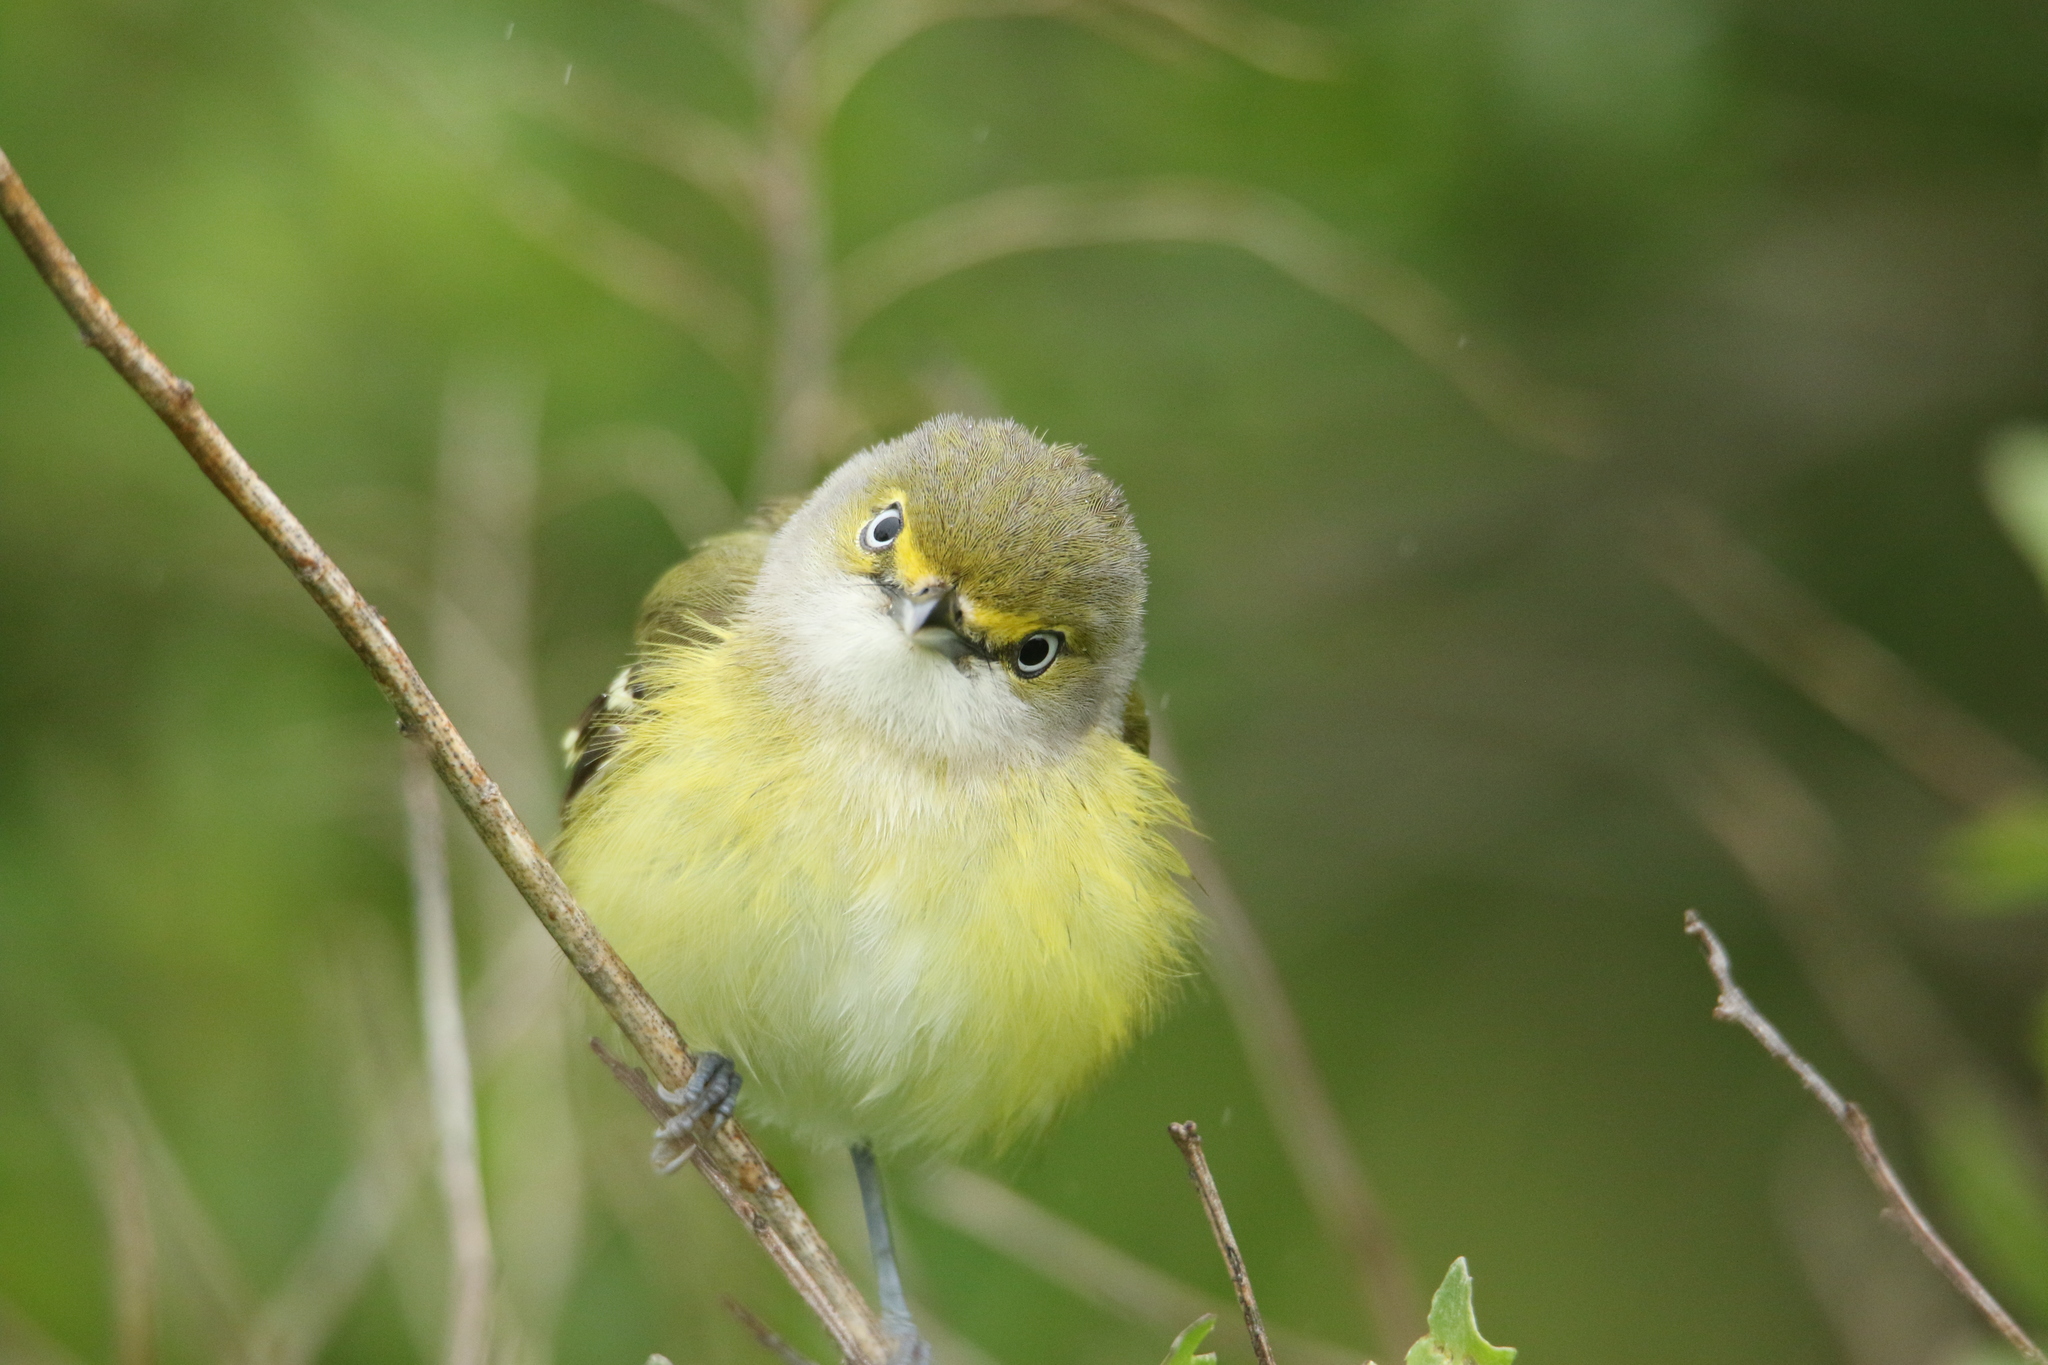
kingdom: Animalia
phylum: Chordata
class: Aves
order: Passeriformes
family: Vireonidae
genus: Vireo
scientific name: Vireo griseus
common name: White-eyed vireo
